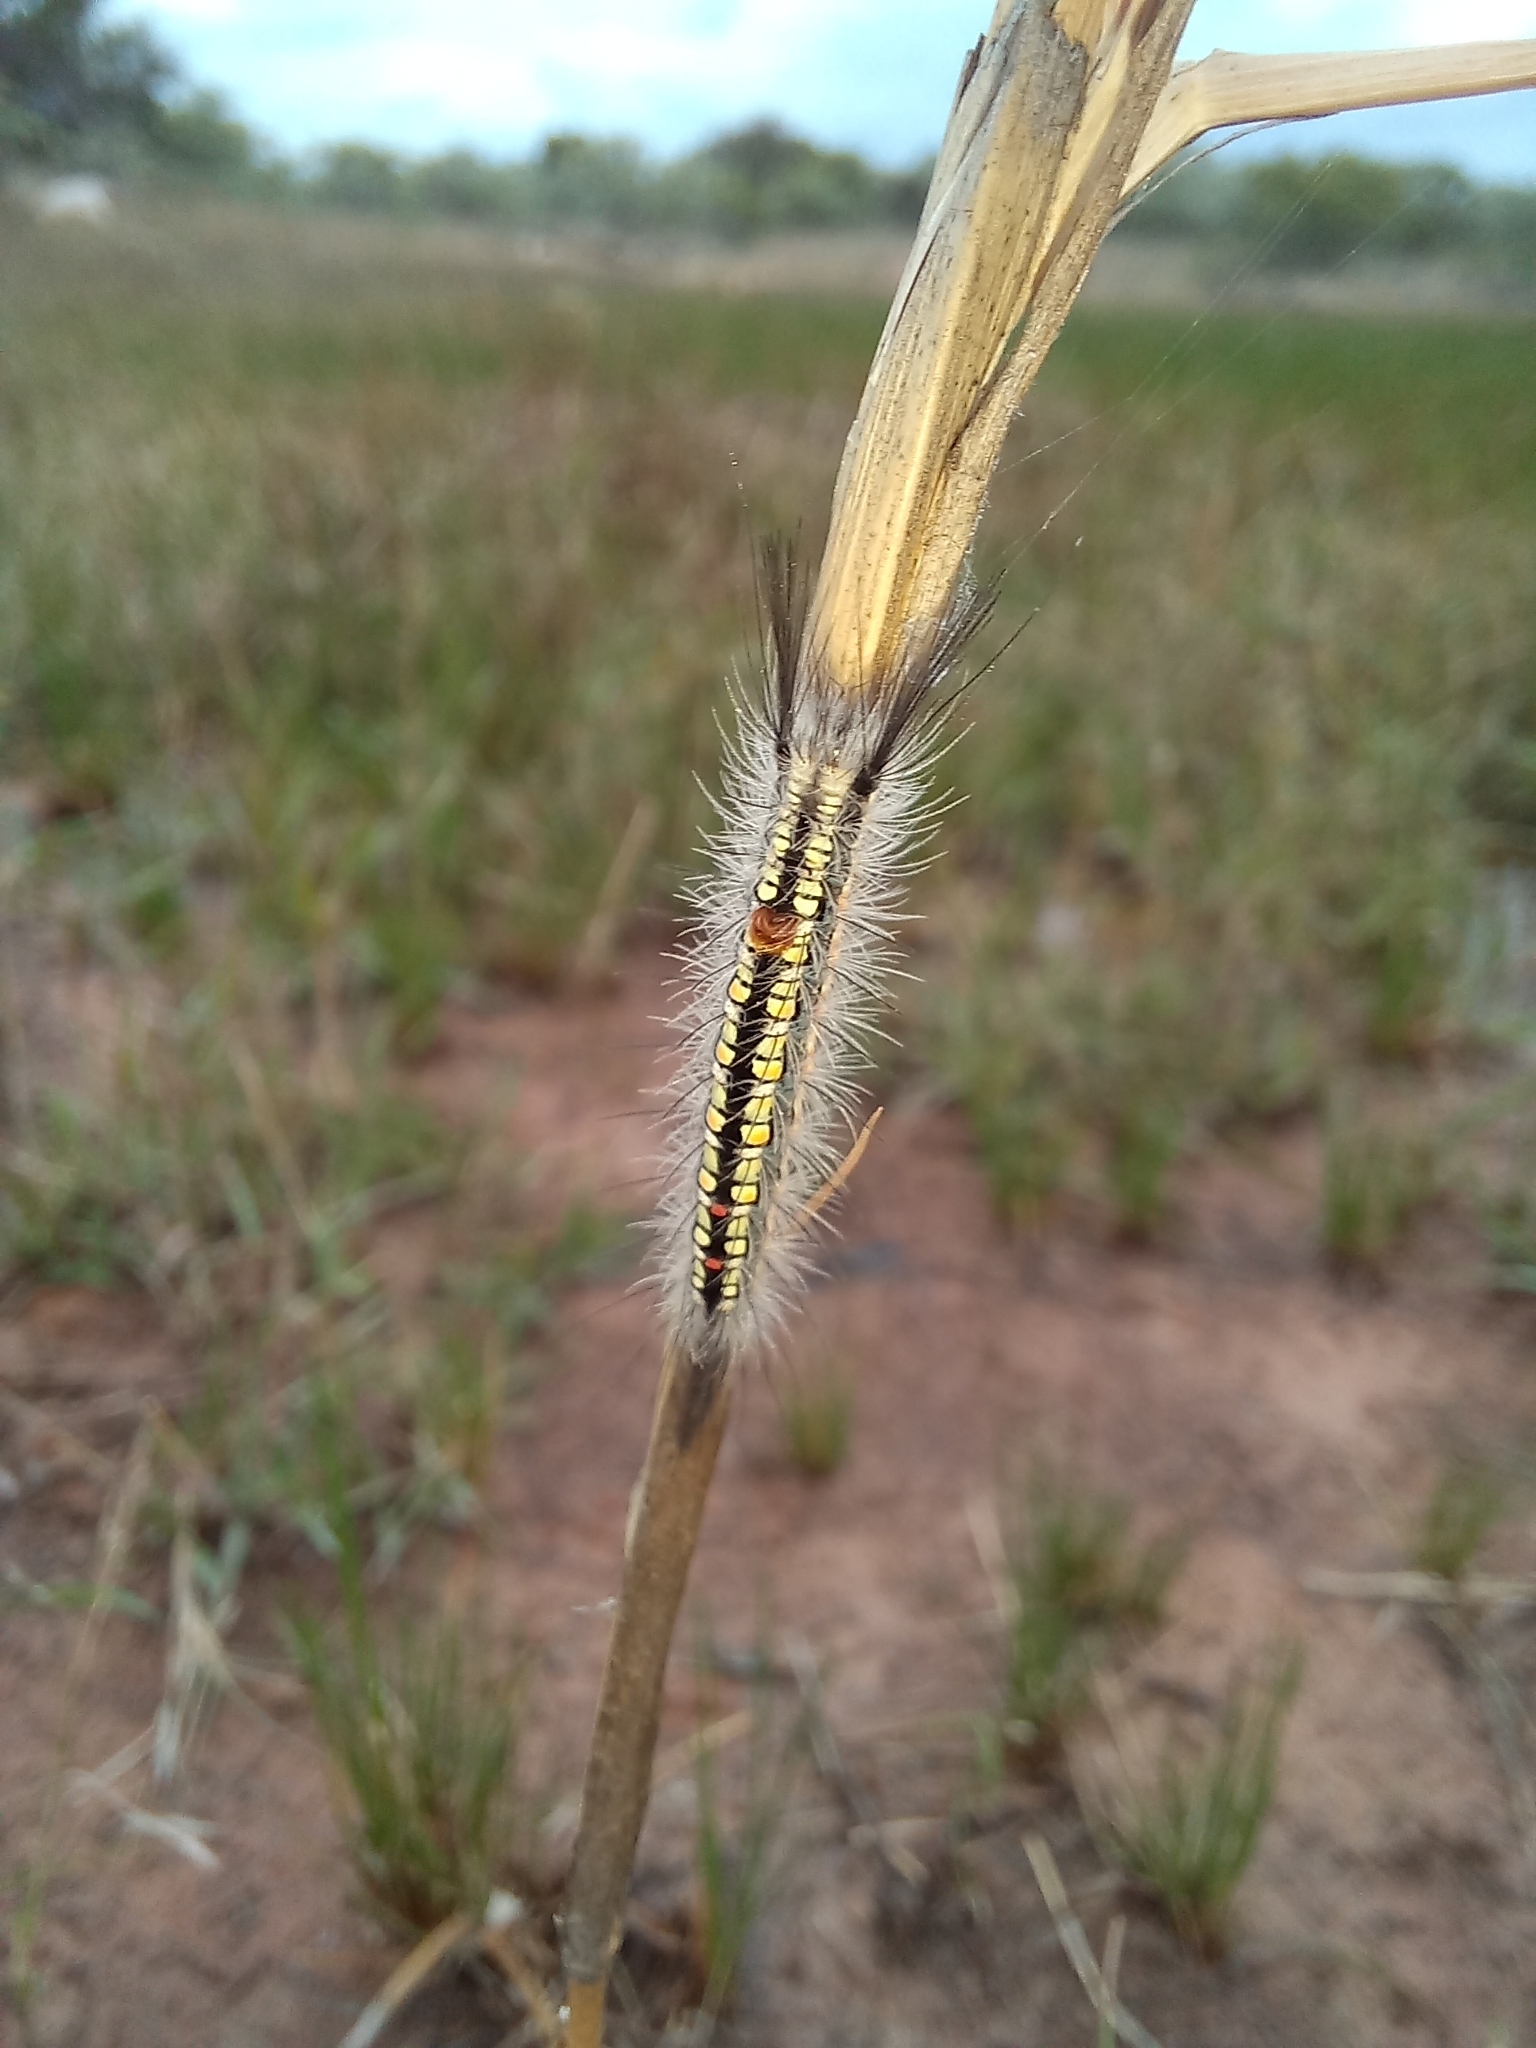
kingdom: Animalia
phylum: Arthropoda
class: Insecta
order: Lepidoptera
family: Erebidae
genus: Psalis
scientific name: Psalis africana
